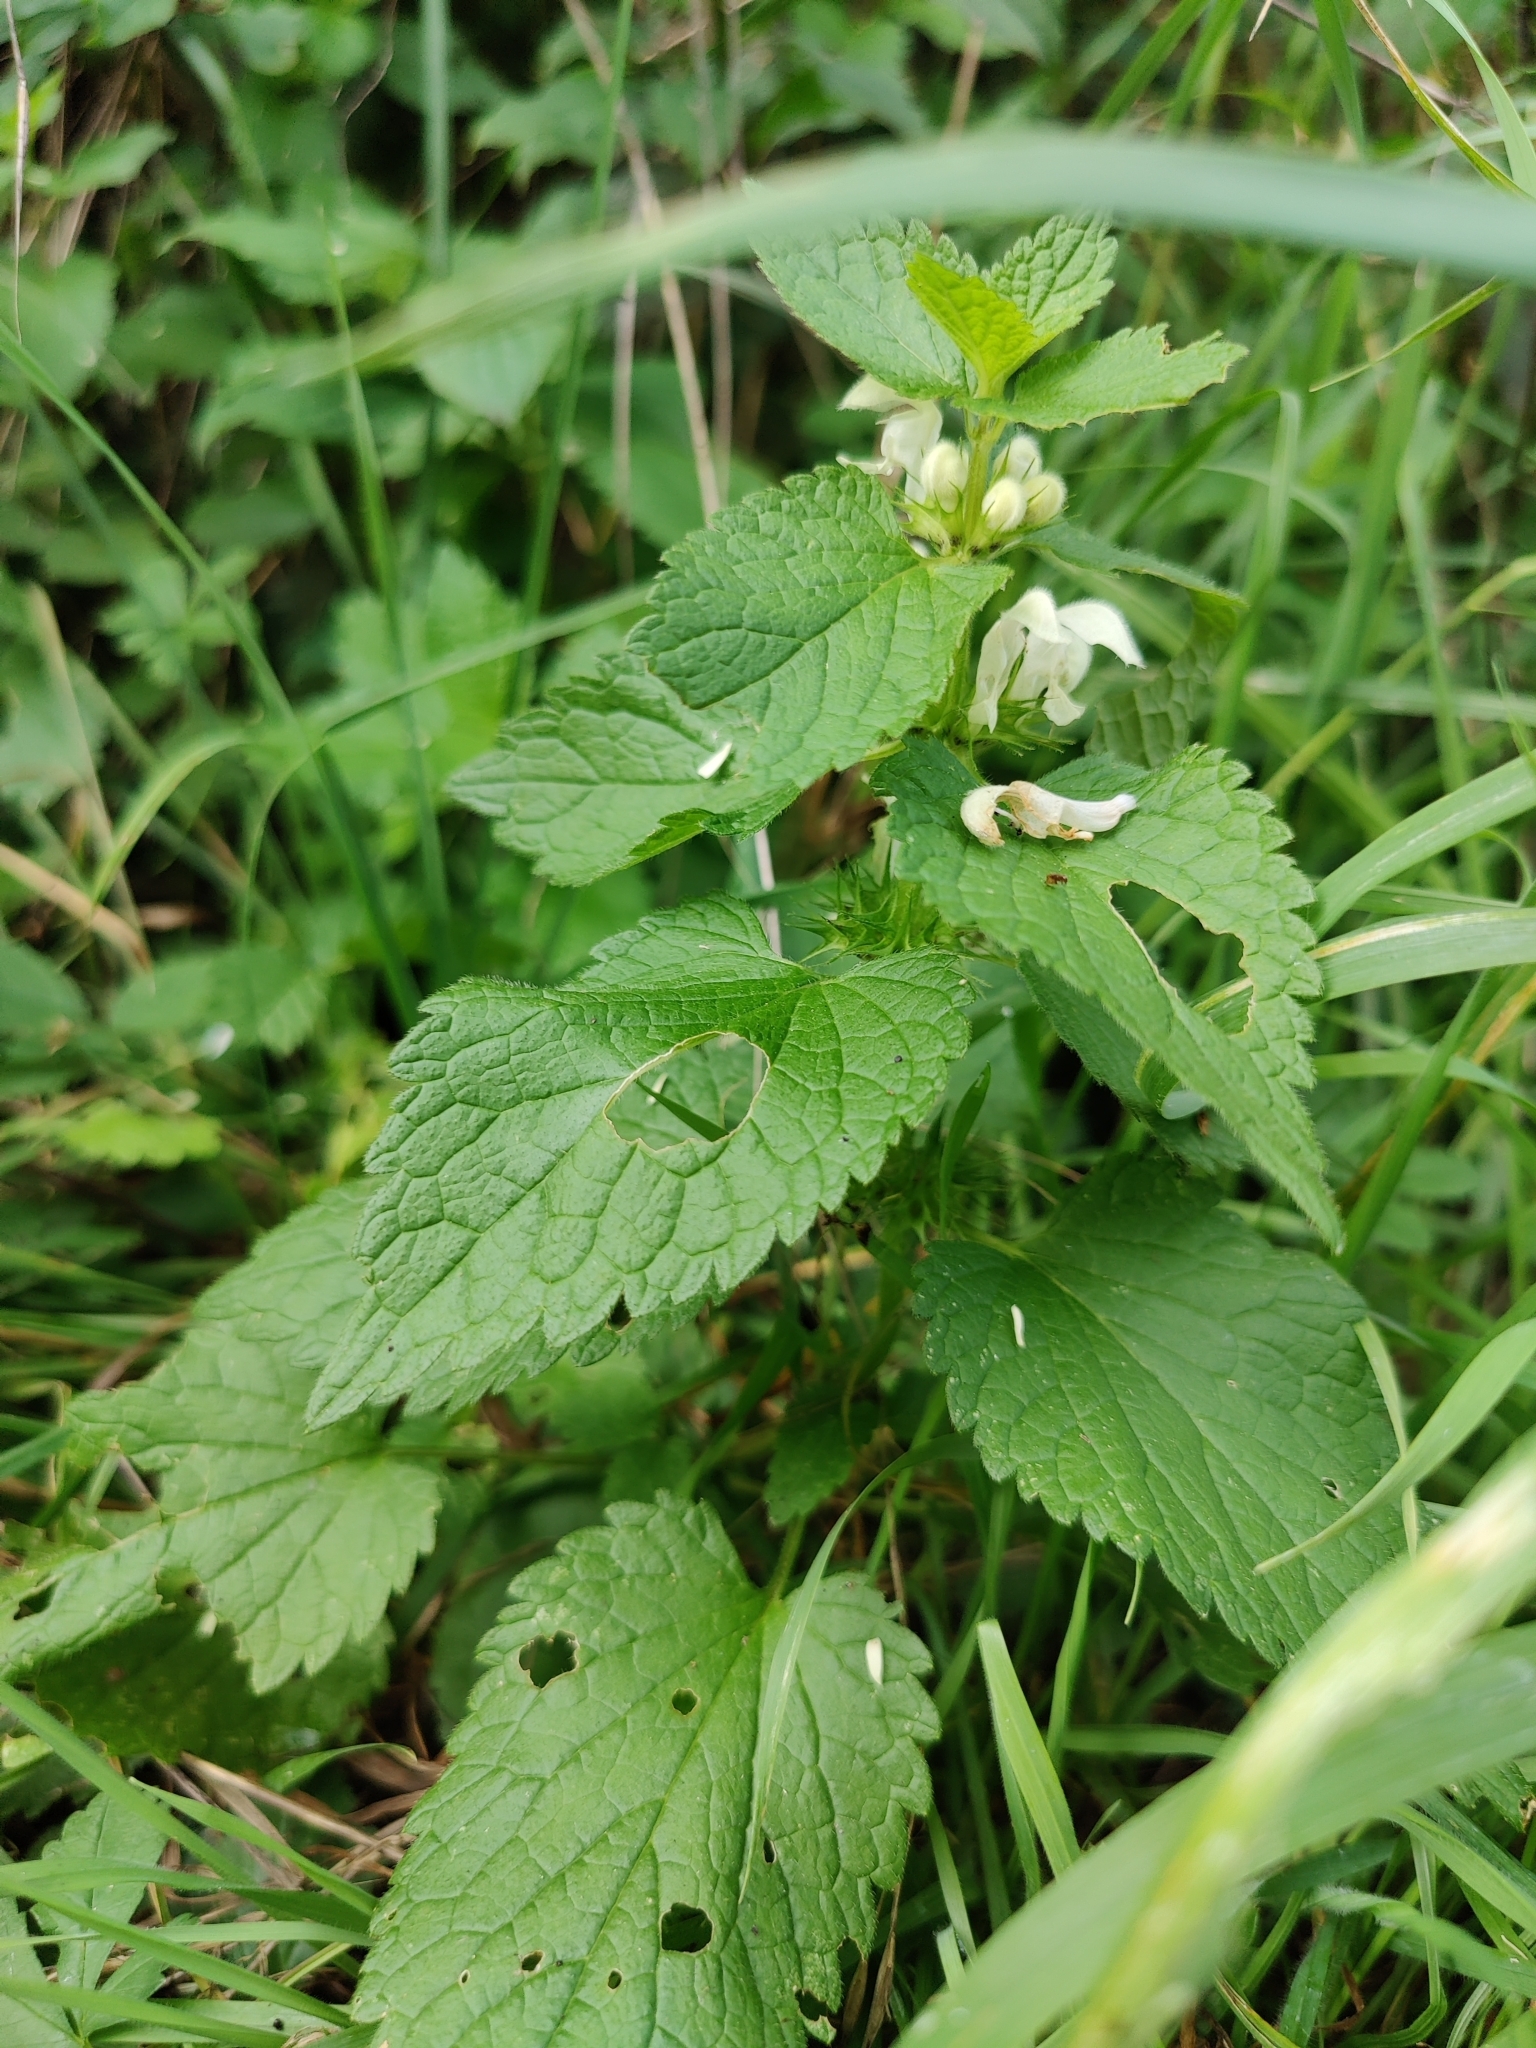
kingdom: Plantae
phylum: Tracheophyta
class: Magnoliopsida
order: Lamiales
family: Lamiaceae
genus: Lamium
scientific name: Lamium album
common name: White dead-nettle
